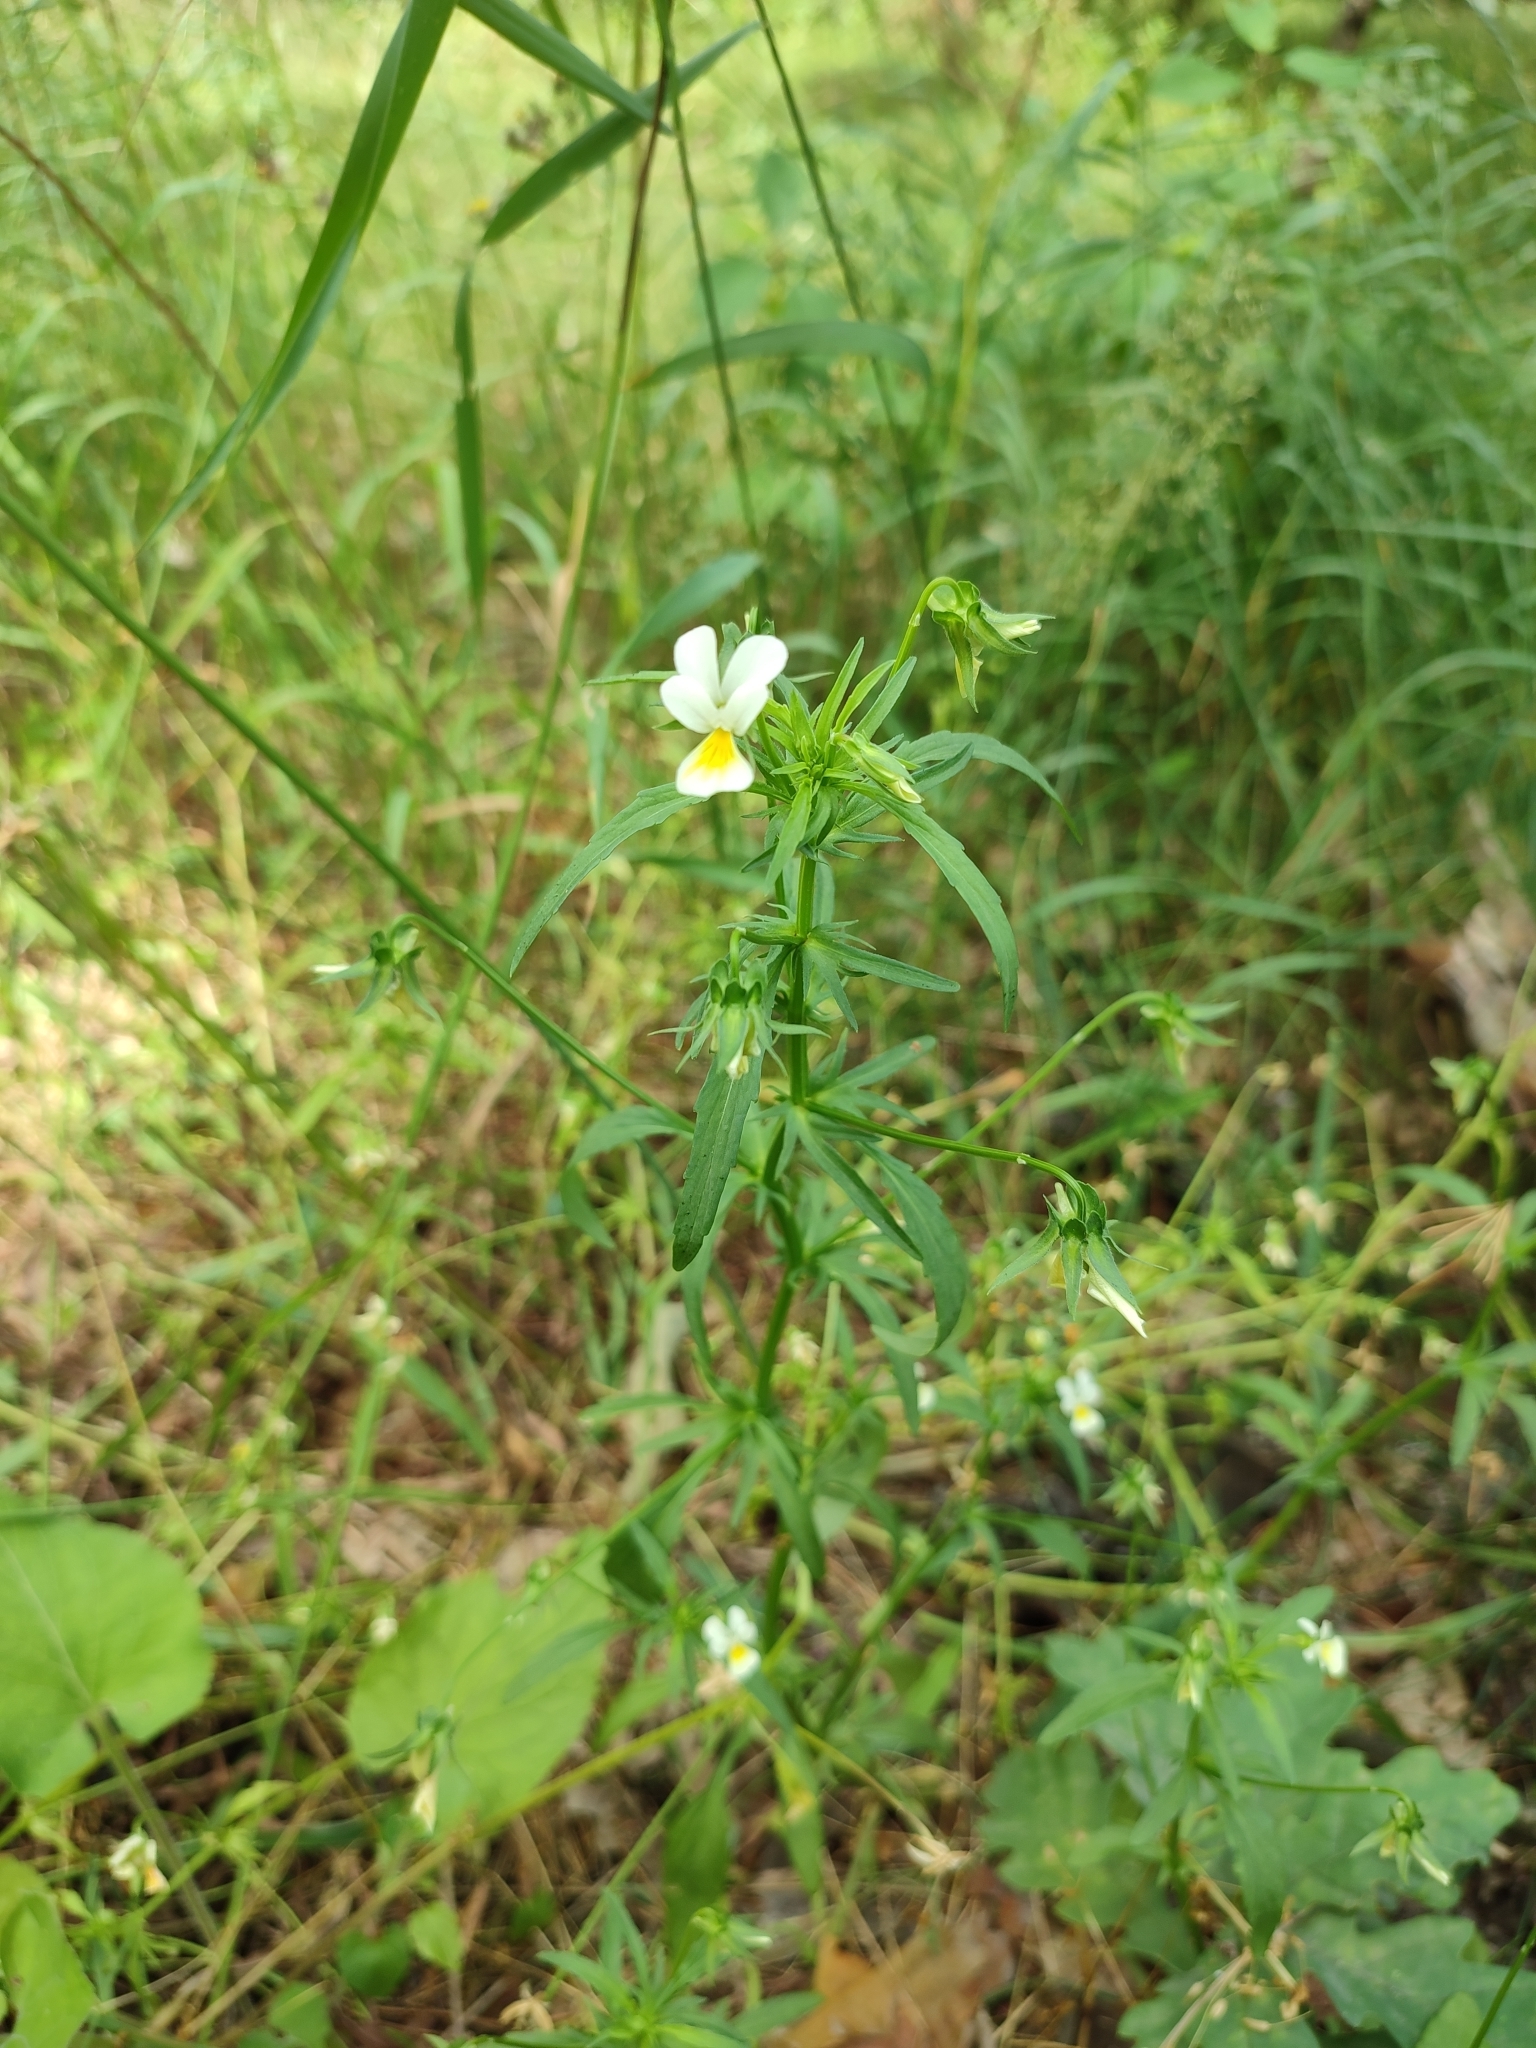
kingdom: Plantae
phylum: Tracheophyta
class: Magnoliopsida
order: Malpighiales
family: Violaceae
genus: Viola
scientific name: Viola arvensis
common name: Field pansy
